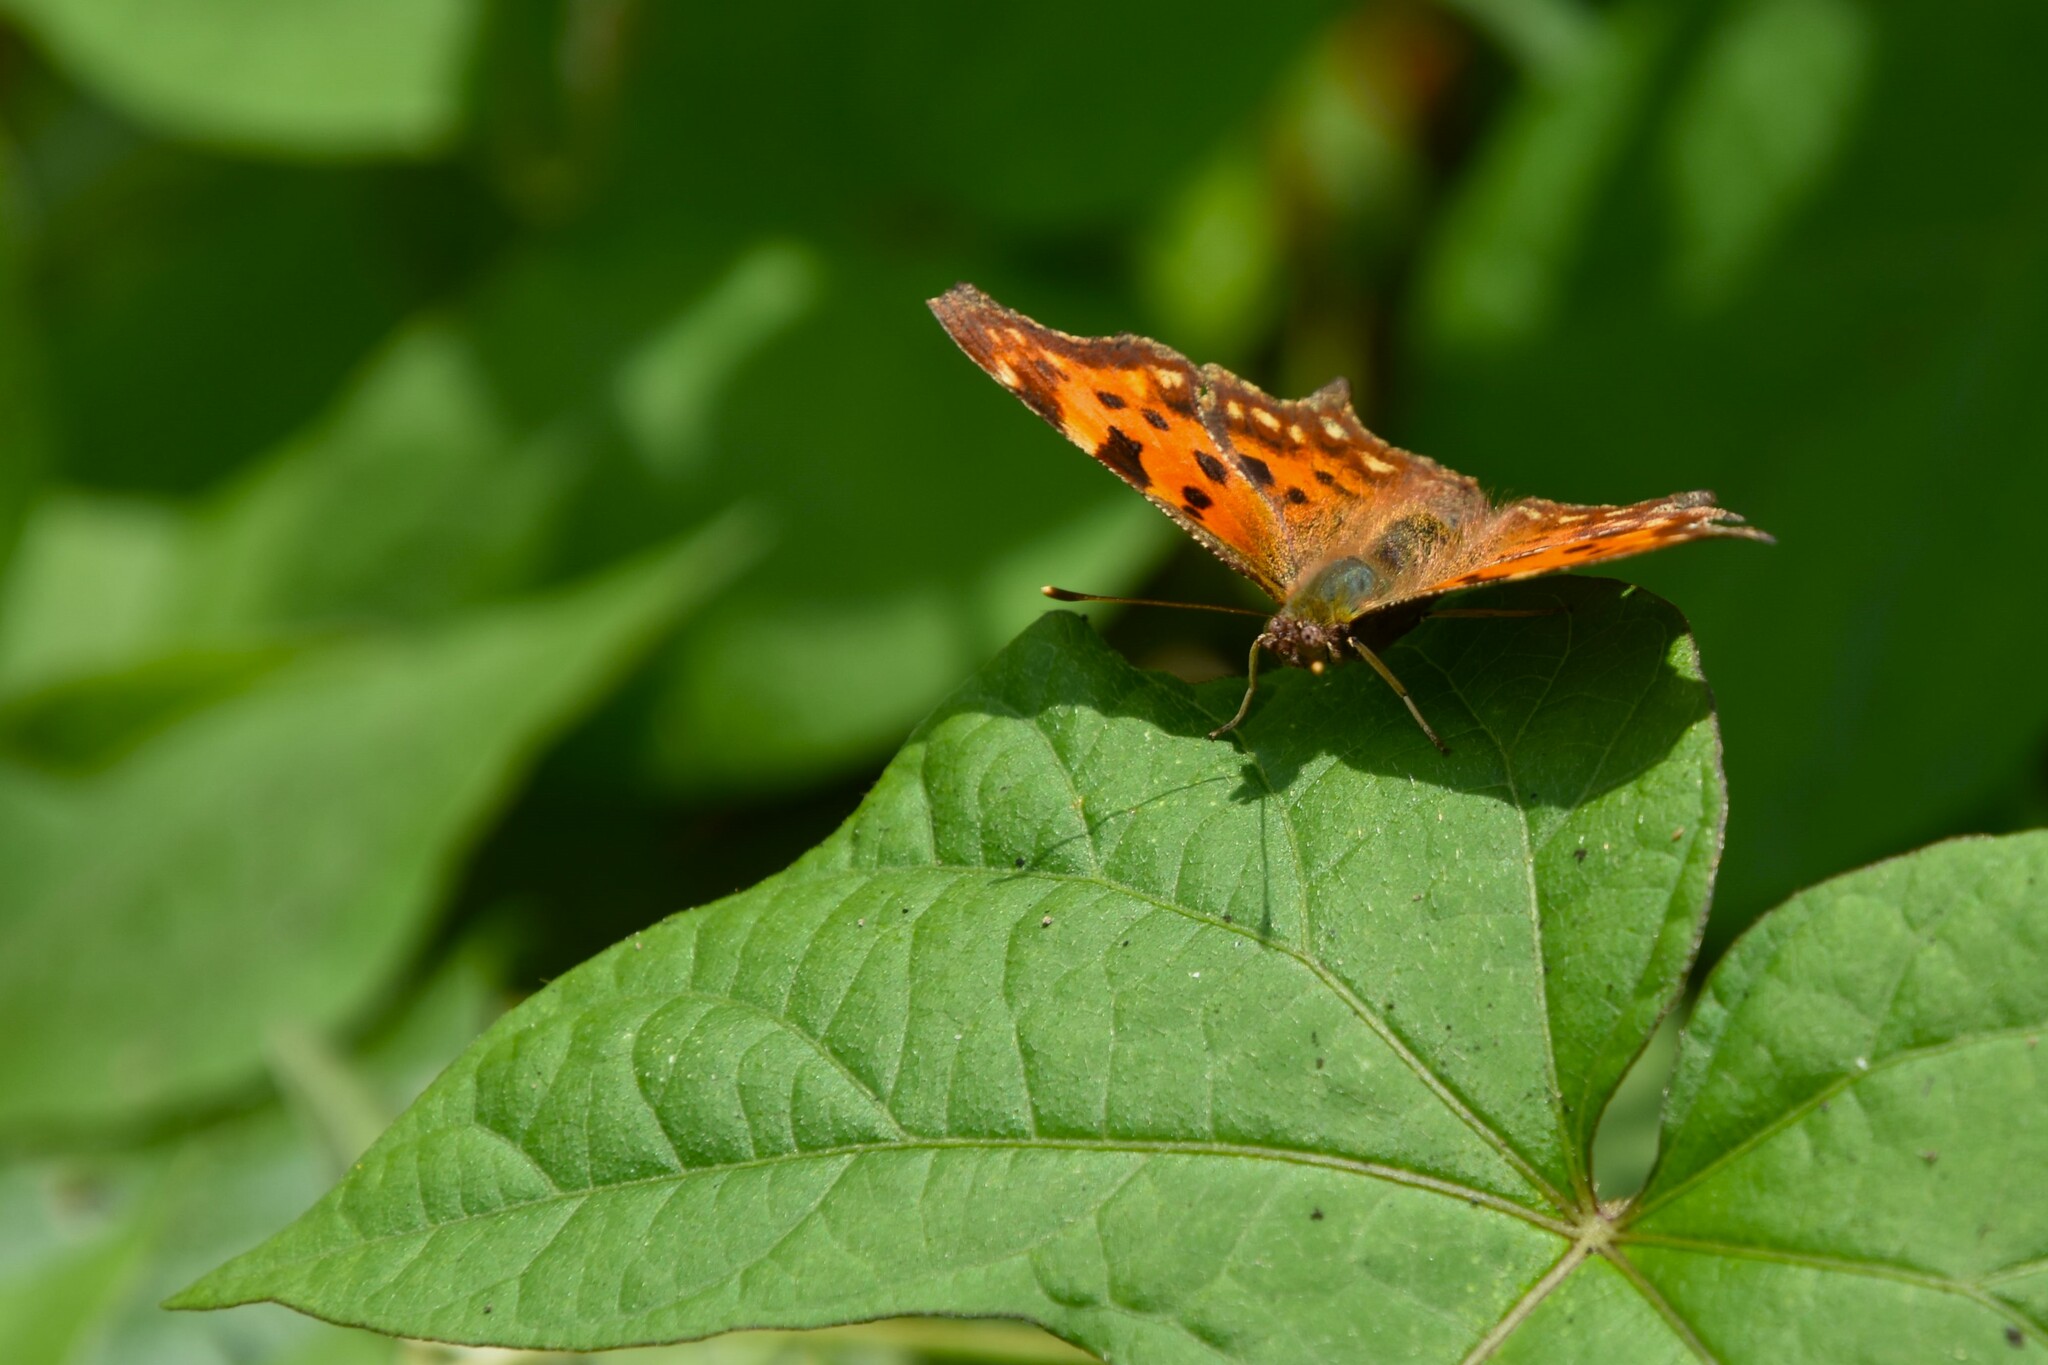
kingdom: Animalia
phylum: Arthropoda
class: Insecta
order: Lepidoptera
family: Nymphalidae
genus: Polygonia
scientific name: Polygonia c-album
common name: Comma
